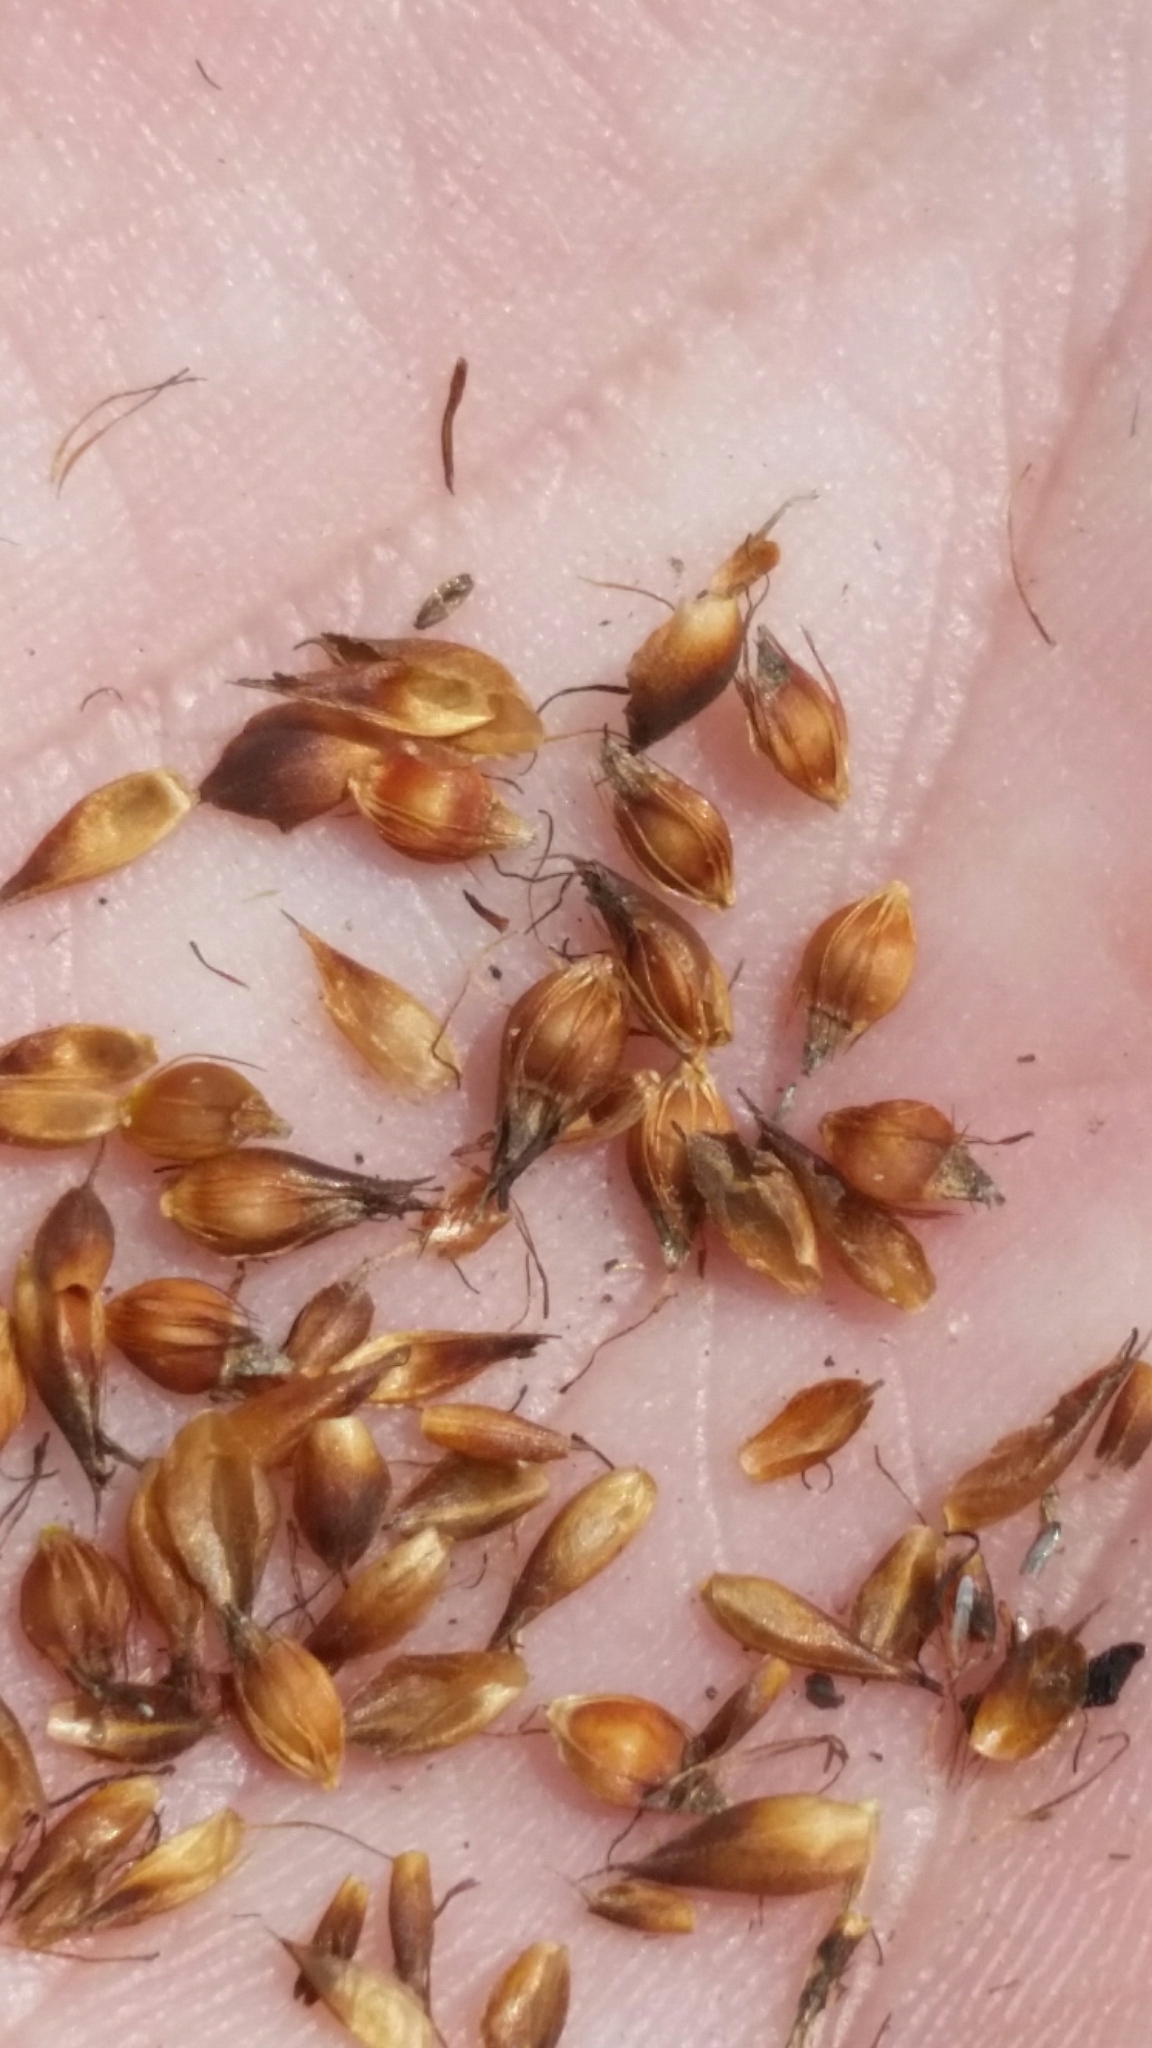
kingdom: Plantae
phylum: Tracheophyta
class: Liliopsida
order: Poales
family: Cyperaceae
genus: Rhynchospora
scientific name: Rhynchospora baldwinii
